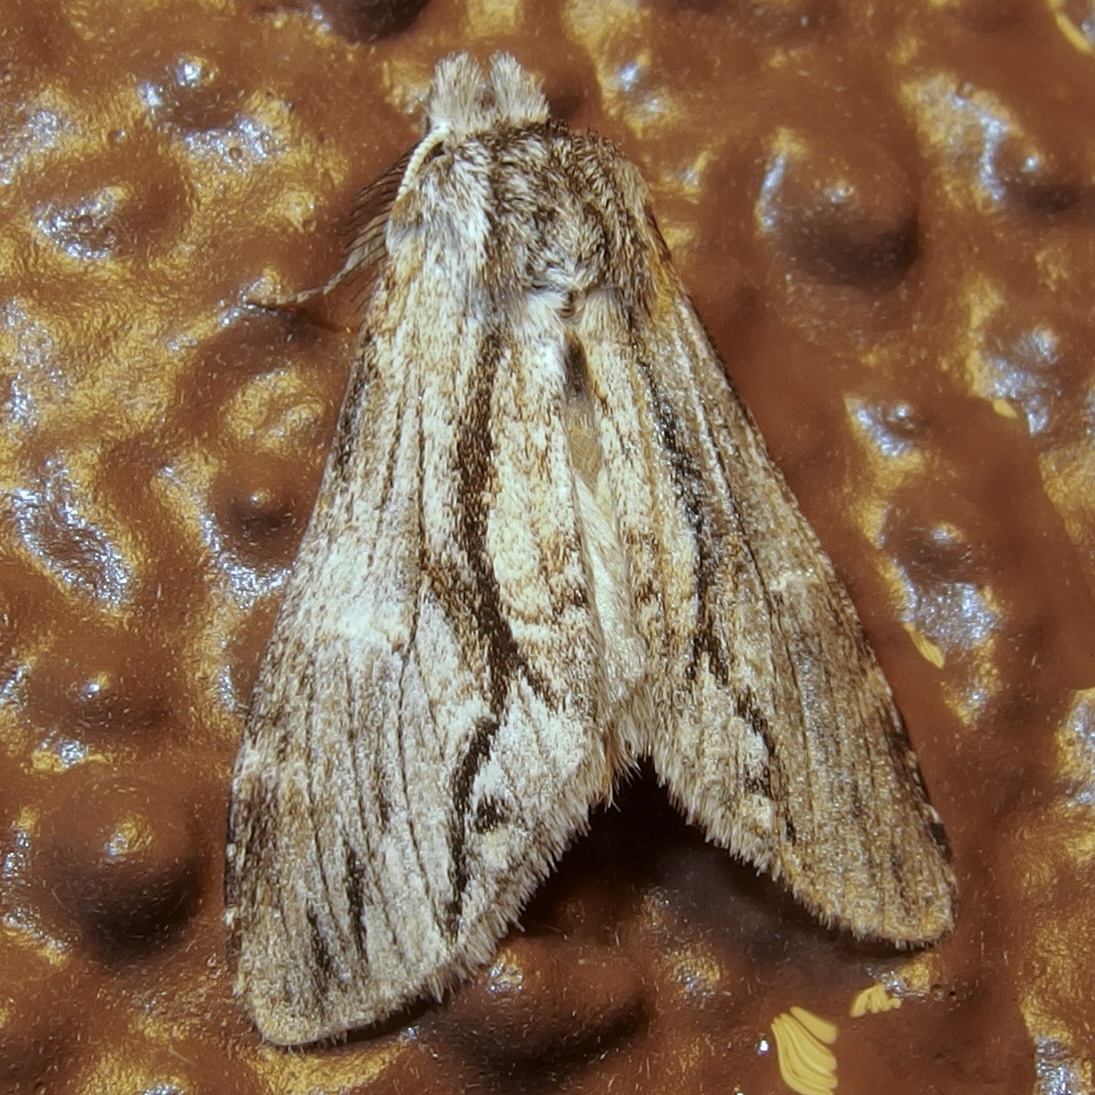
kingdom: Animalia
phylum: Arthropoda
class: Insecta
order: Lepidoptera
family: Notodontidae
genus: Notela
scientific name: Notela jaliscana
